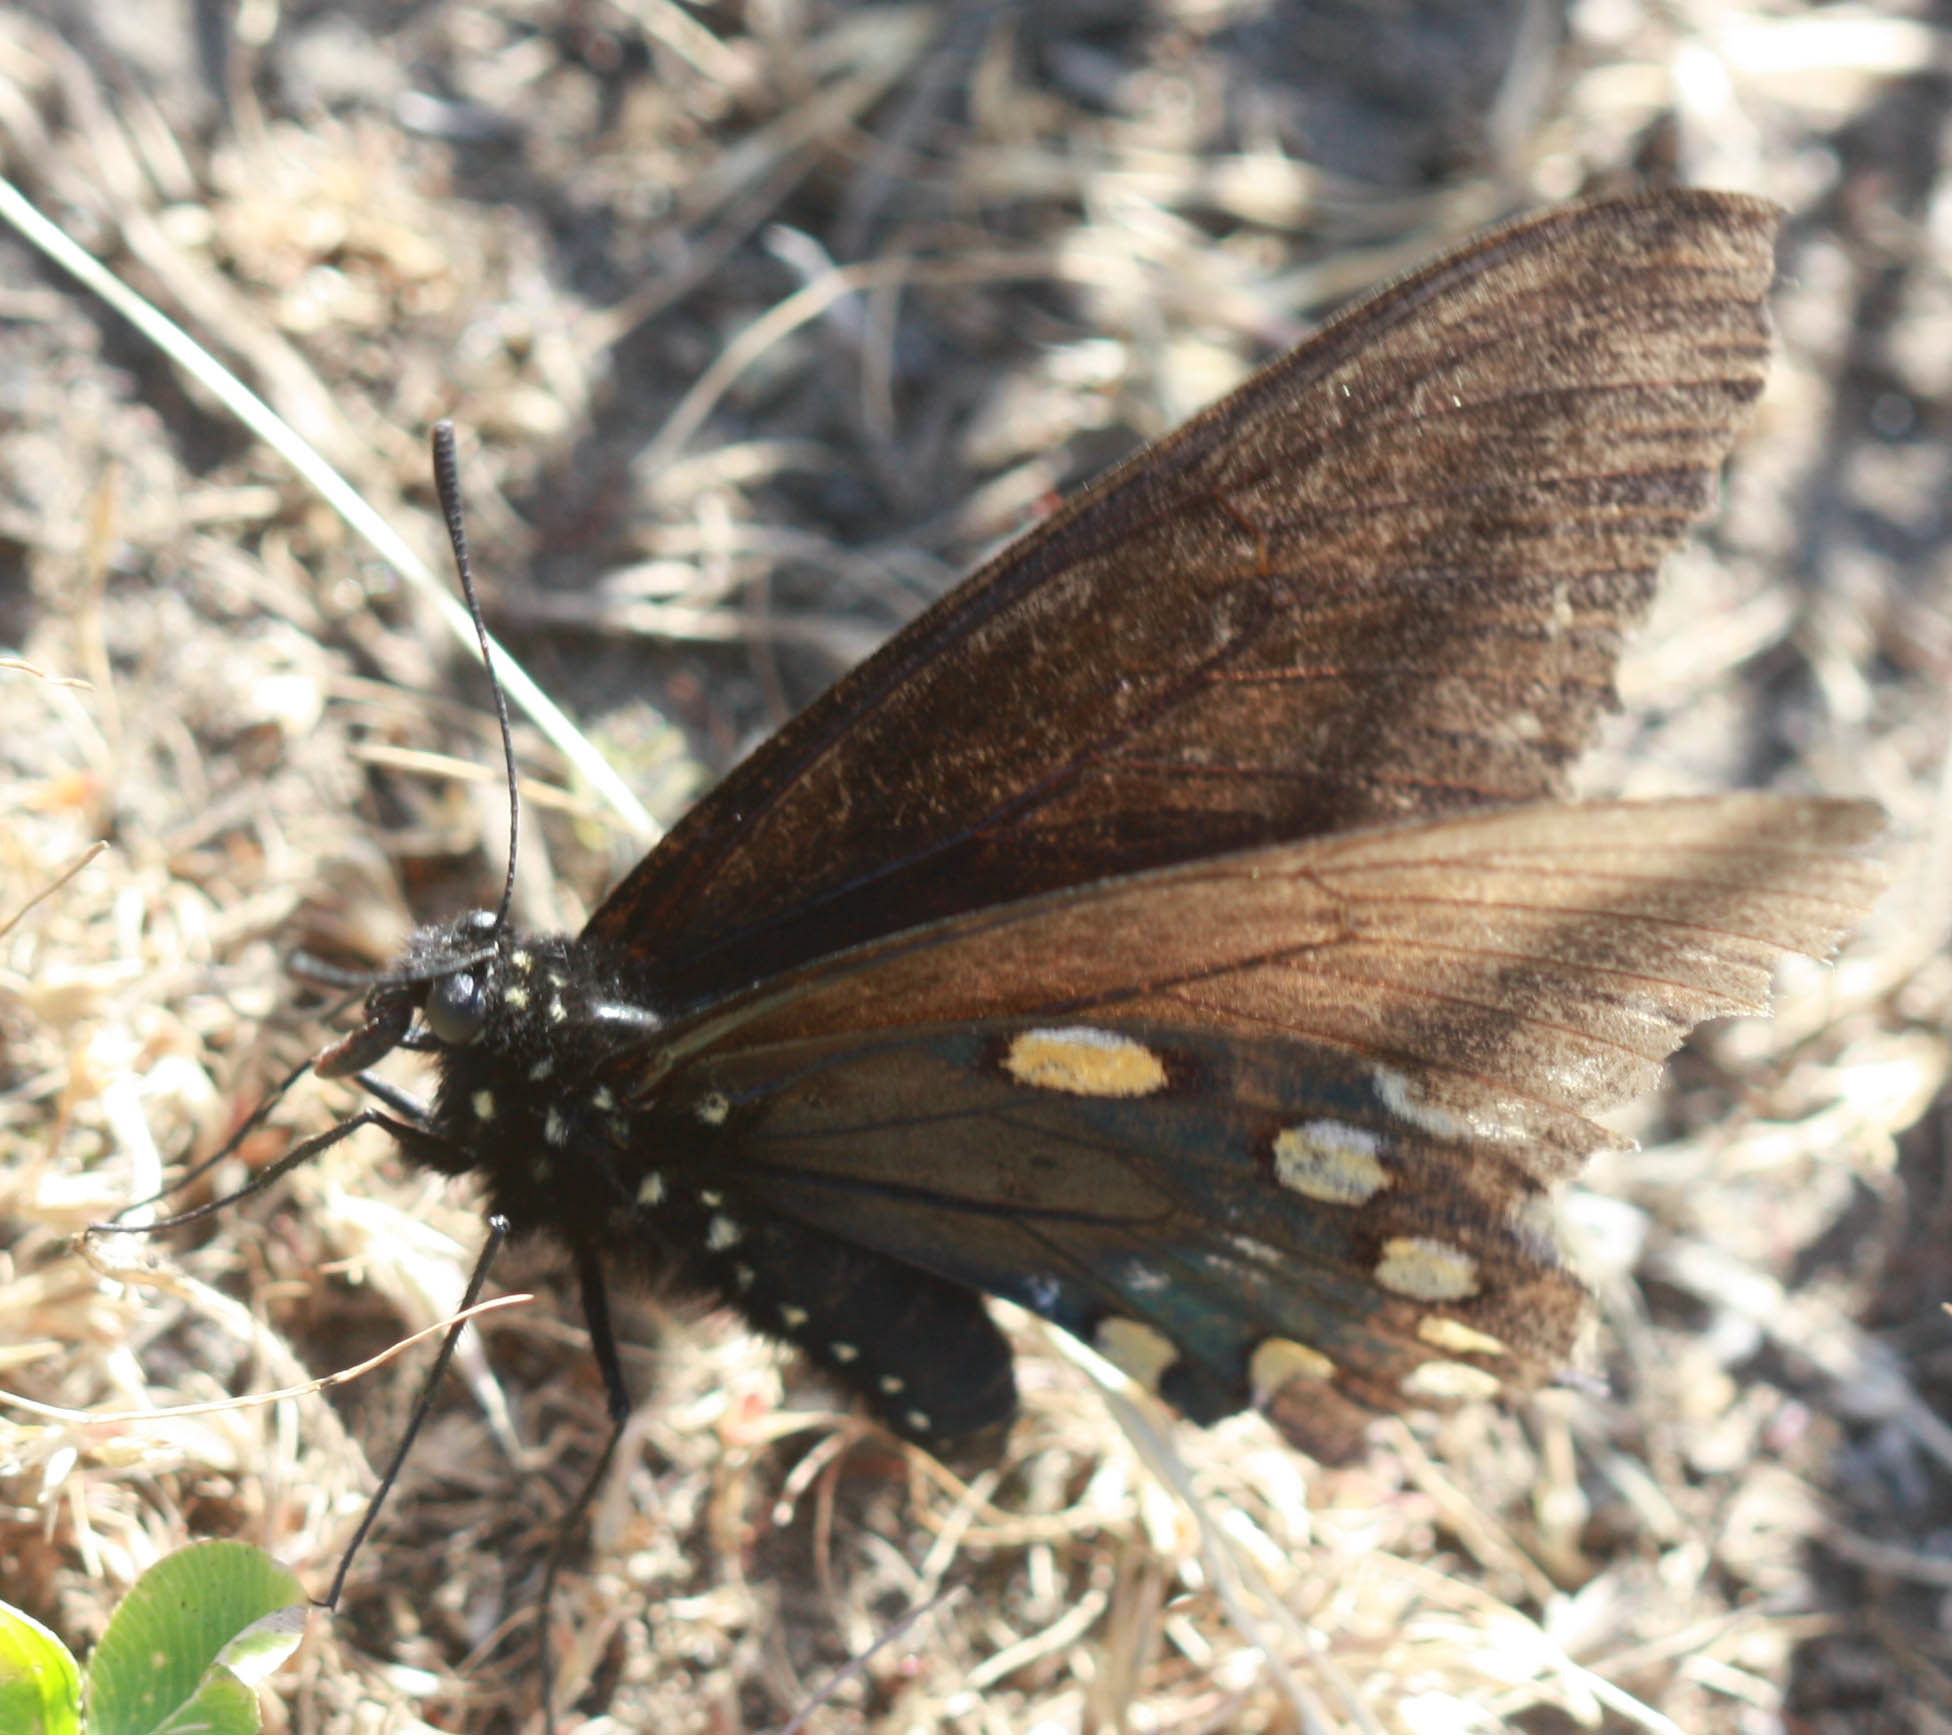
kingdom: Animalia
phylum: Arthropoda
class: Insecta
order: Lepidoptera
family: Papilionidae
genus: Battus
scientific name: Battus philenor
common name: Pipevine swallowtail
